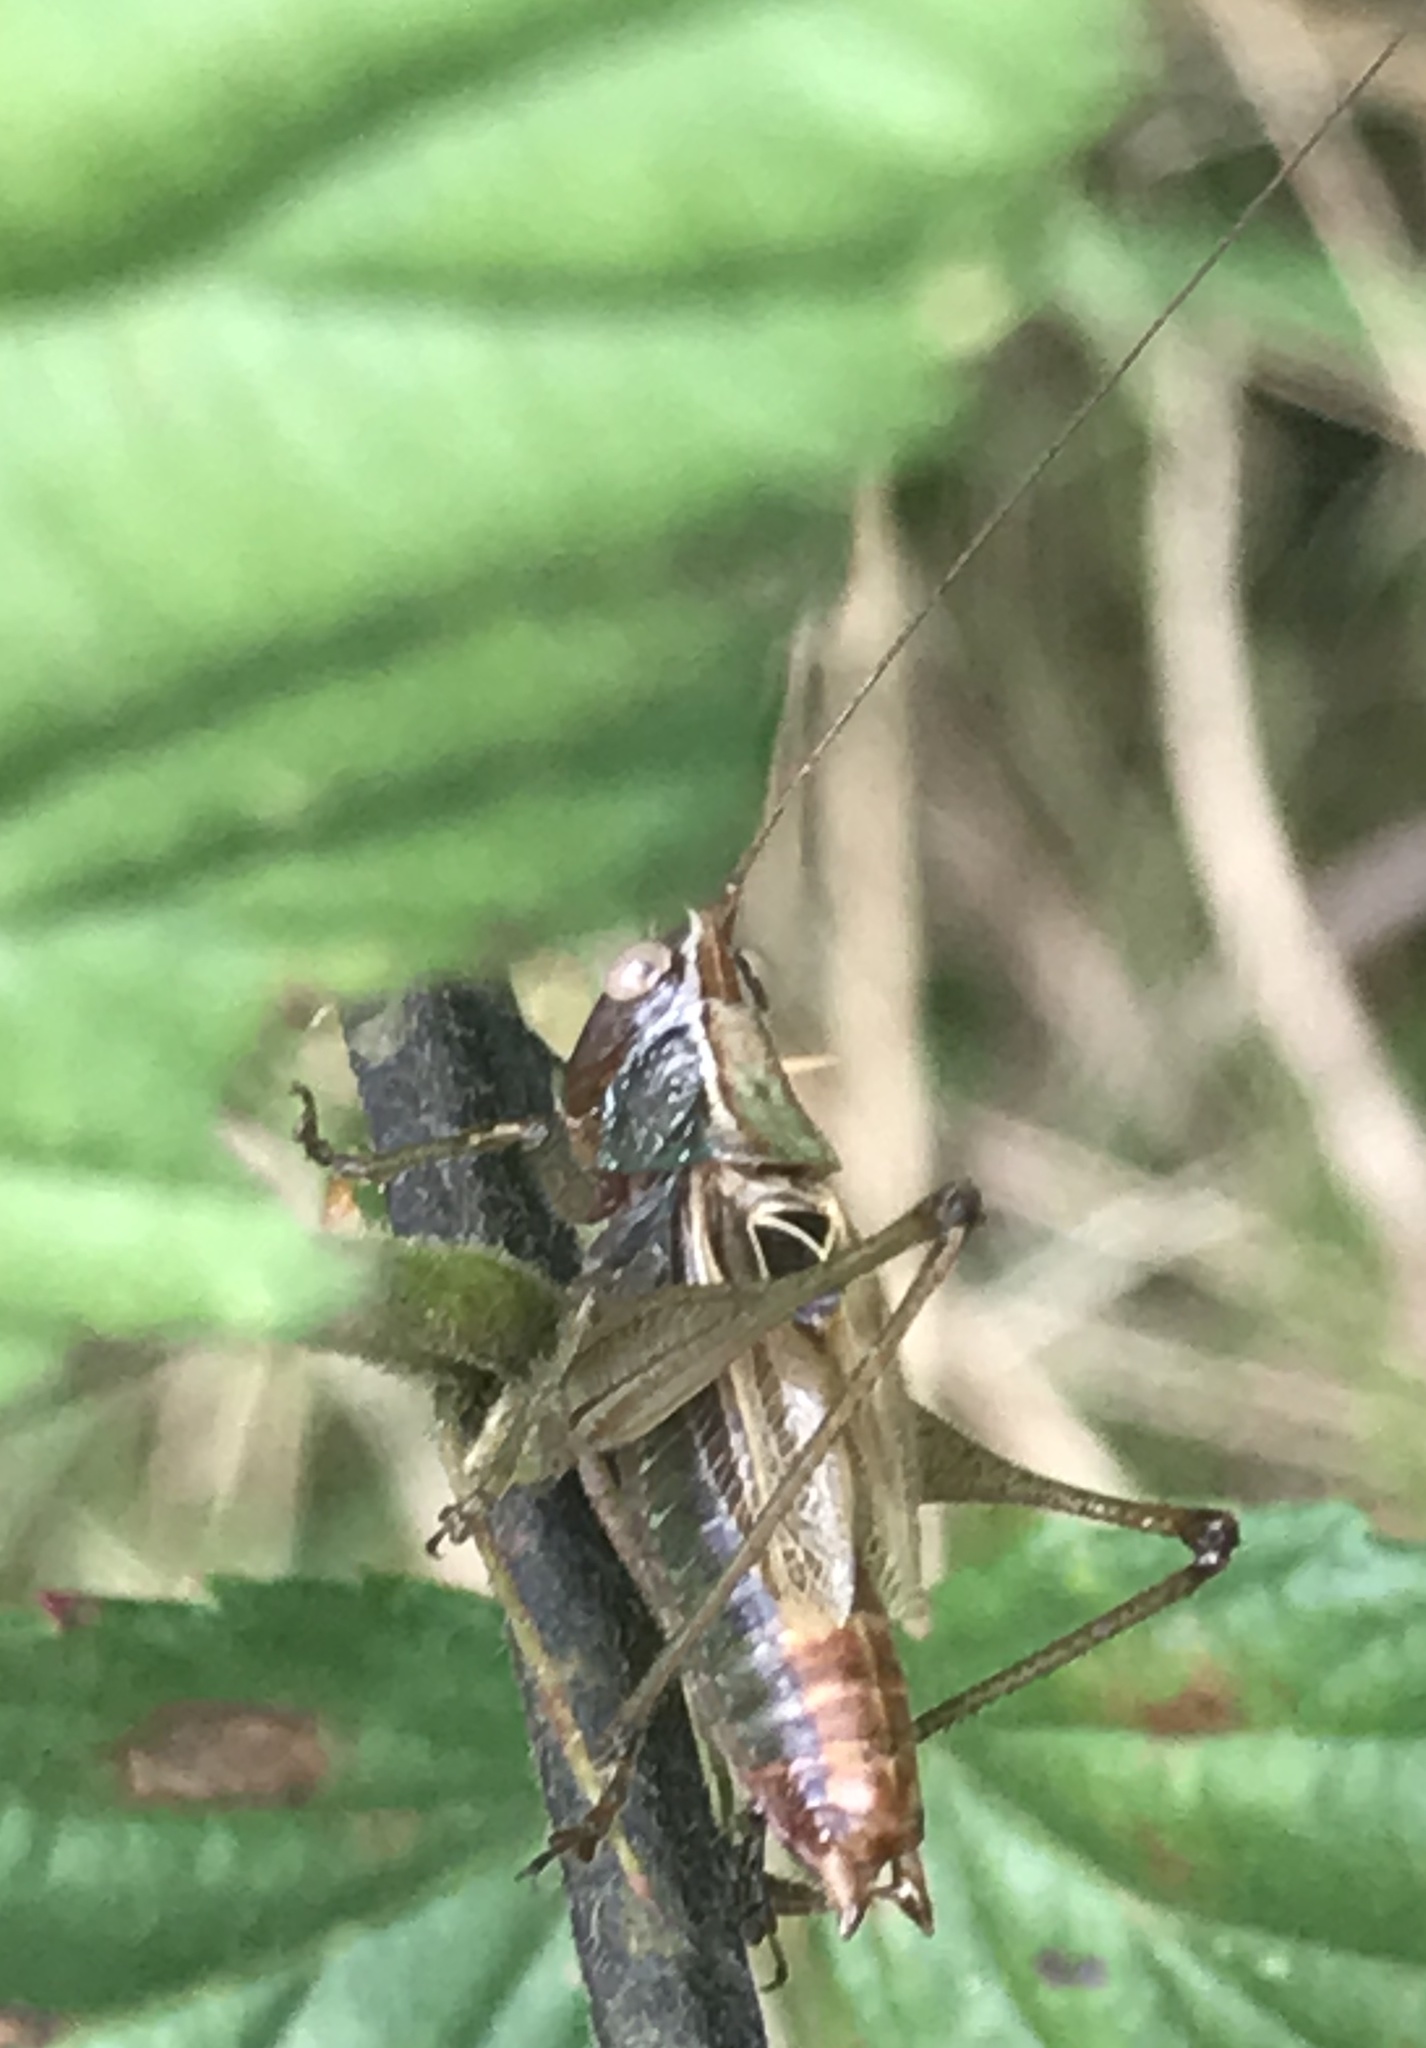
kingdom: Animalia
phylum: Arthropoda
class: Insecta
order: Orthoptera
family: Tettigoniidae
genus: Conocephalus
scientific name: Conocephalus nemoralis
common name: Woodland meadow katydid
